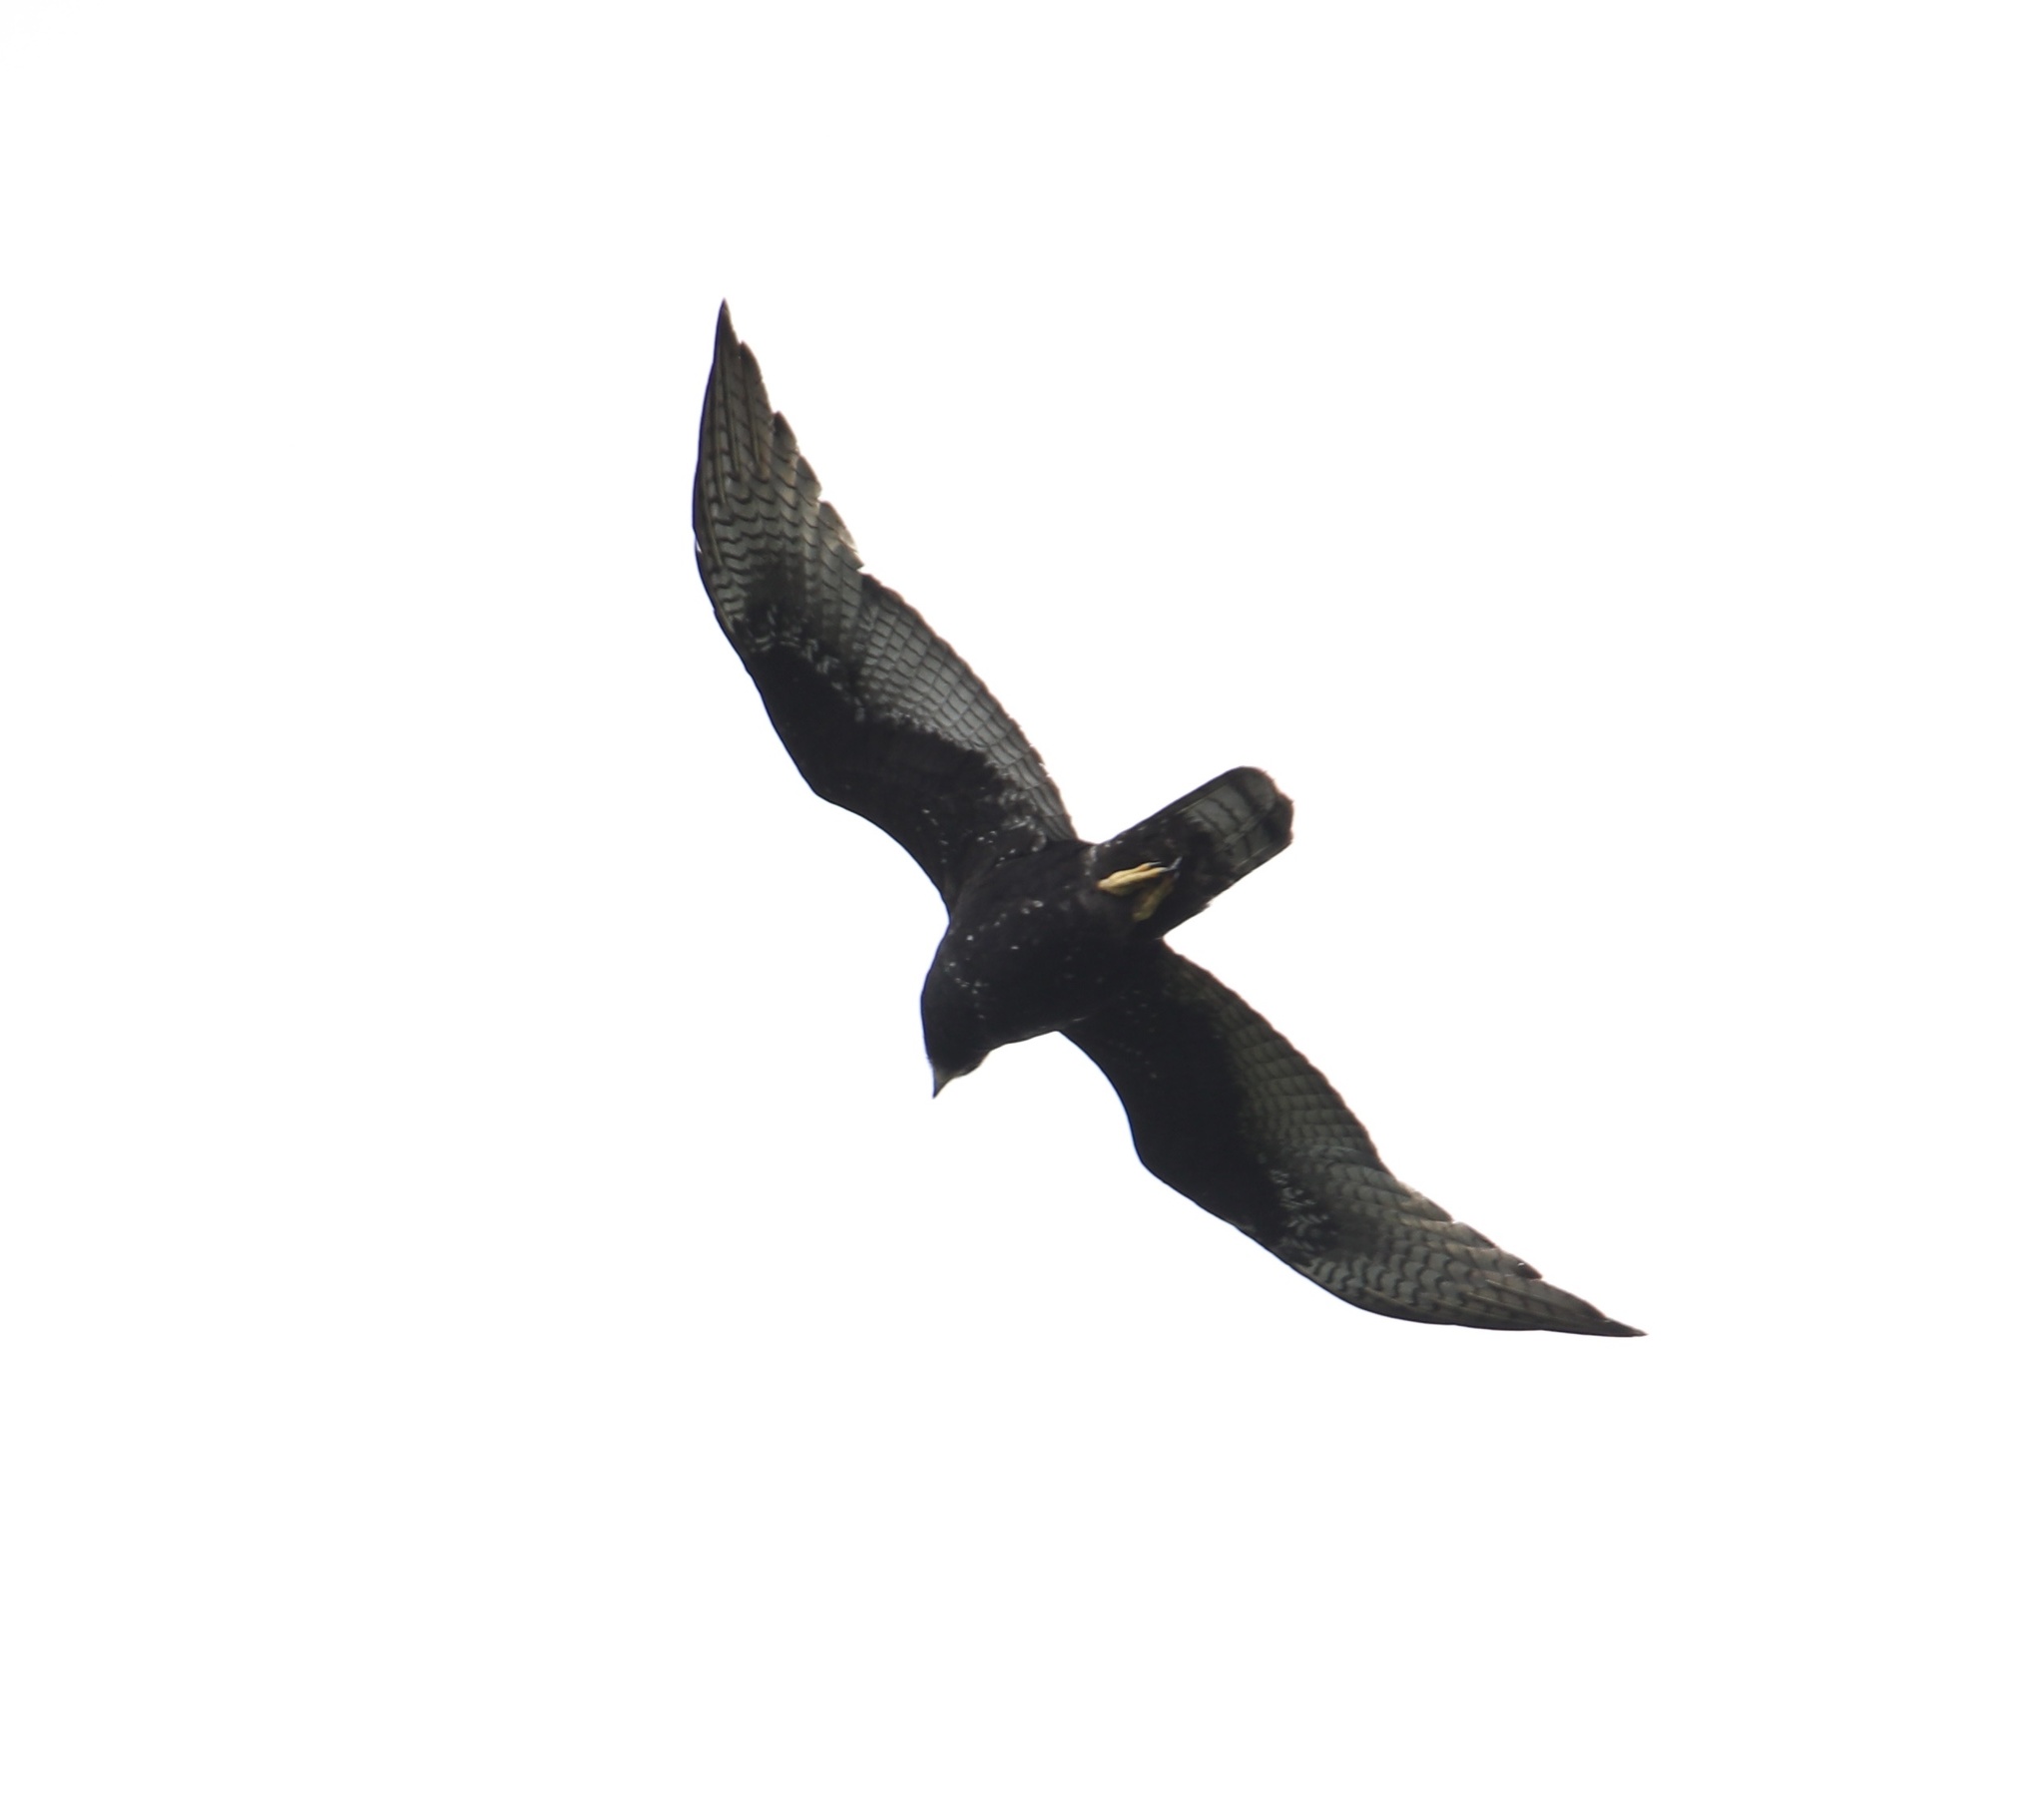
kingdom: Animalia
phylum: Chordata
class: Aves
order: Accipitriformes
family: Accipitridae
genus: Buteo
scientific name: Buteo albonotatus
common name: Zone-tailed hawk
